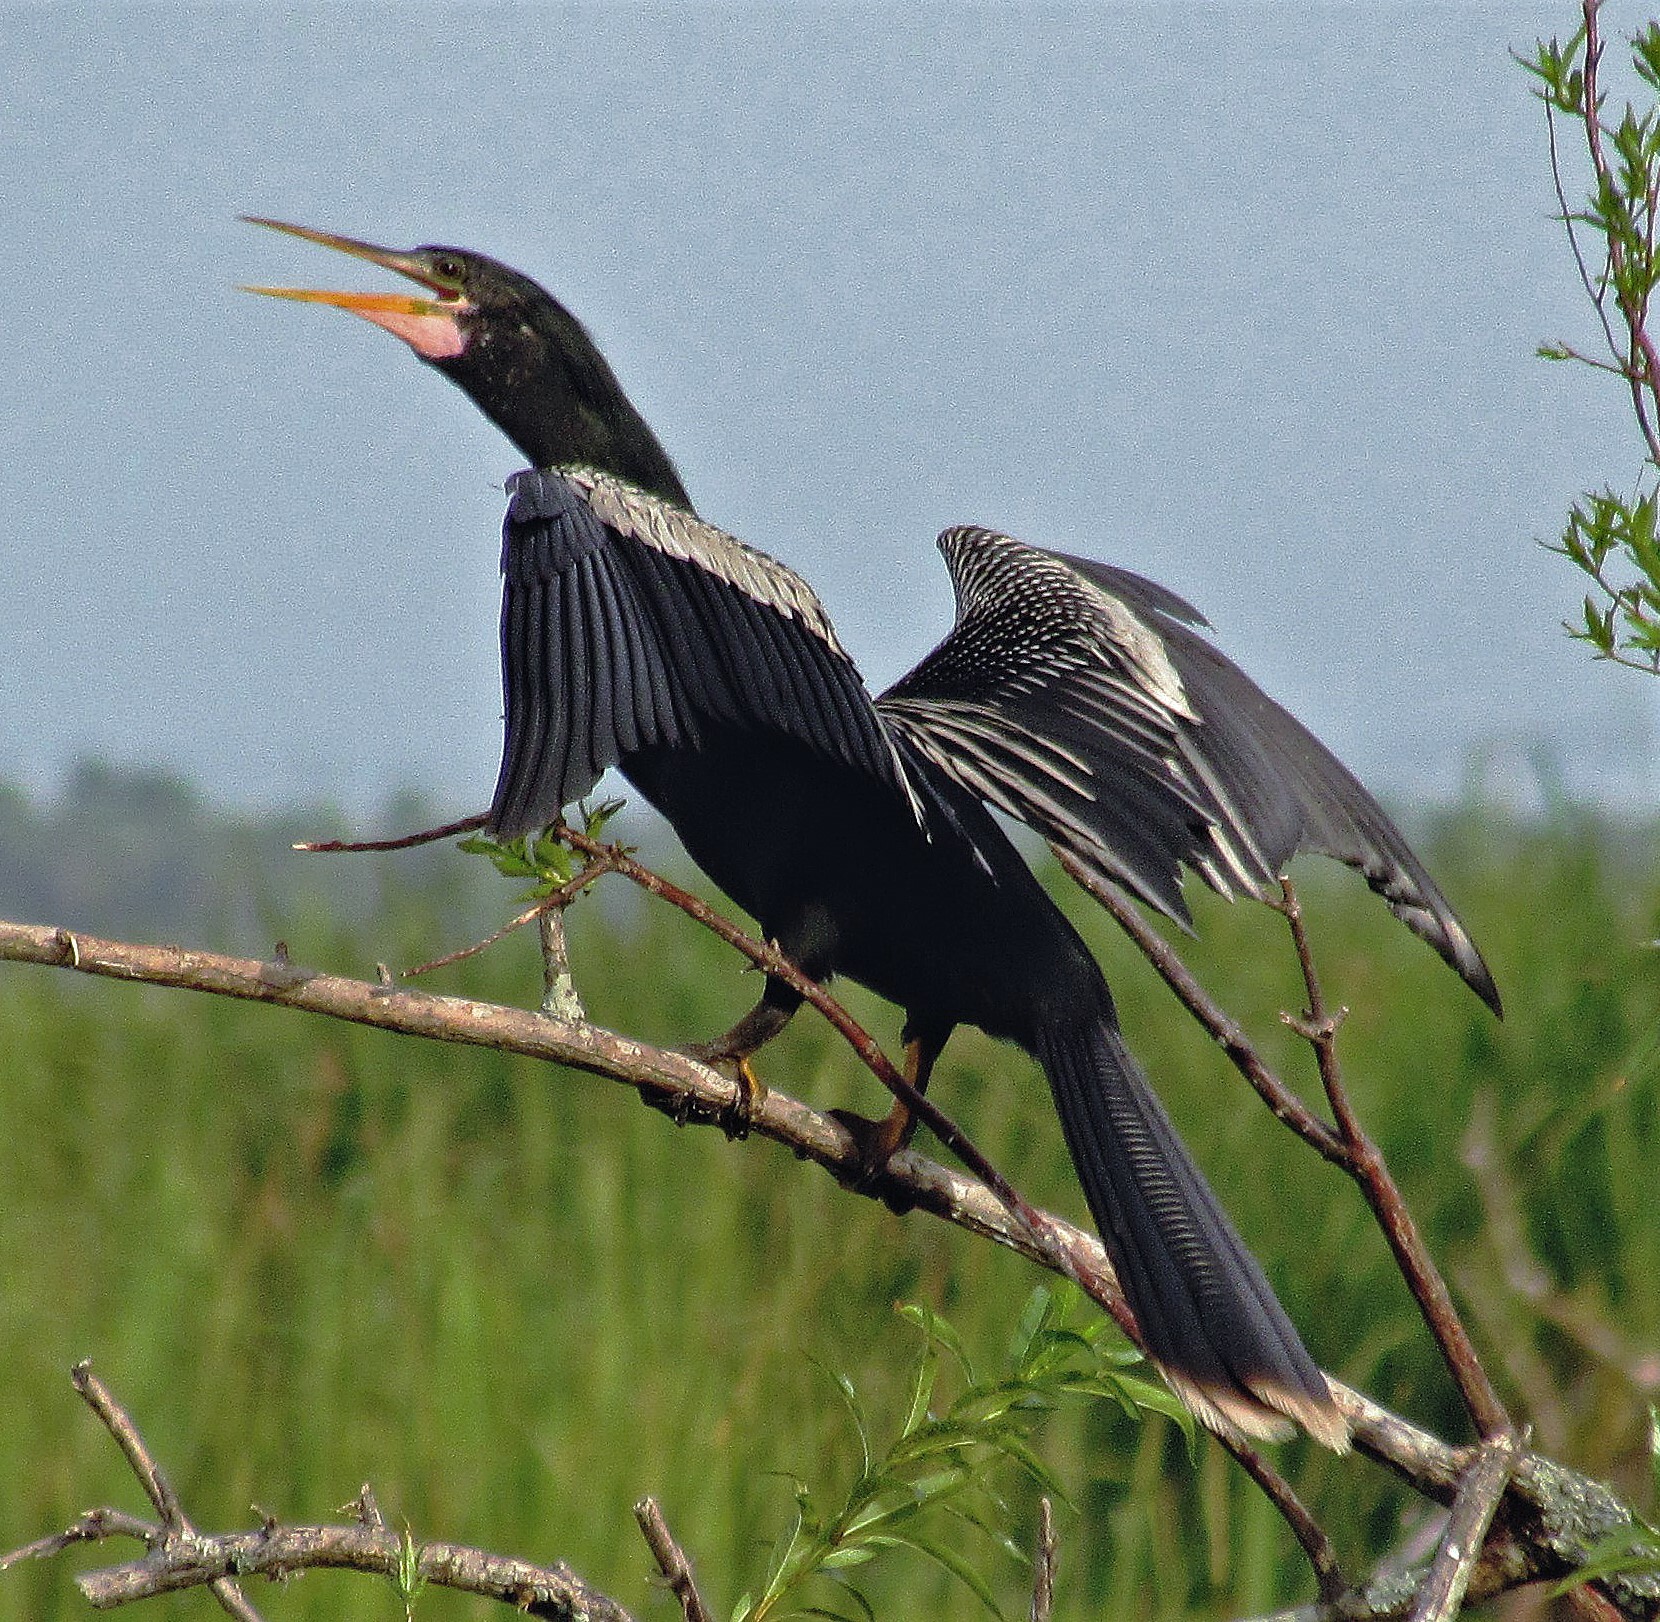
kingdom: Animalia
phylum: Chordata
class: Aves
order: Suliformes
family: Anhingidae
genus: Anhinga
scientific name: Anhinga anhinga
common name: Anhinga
